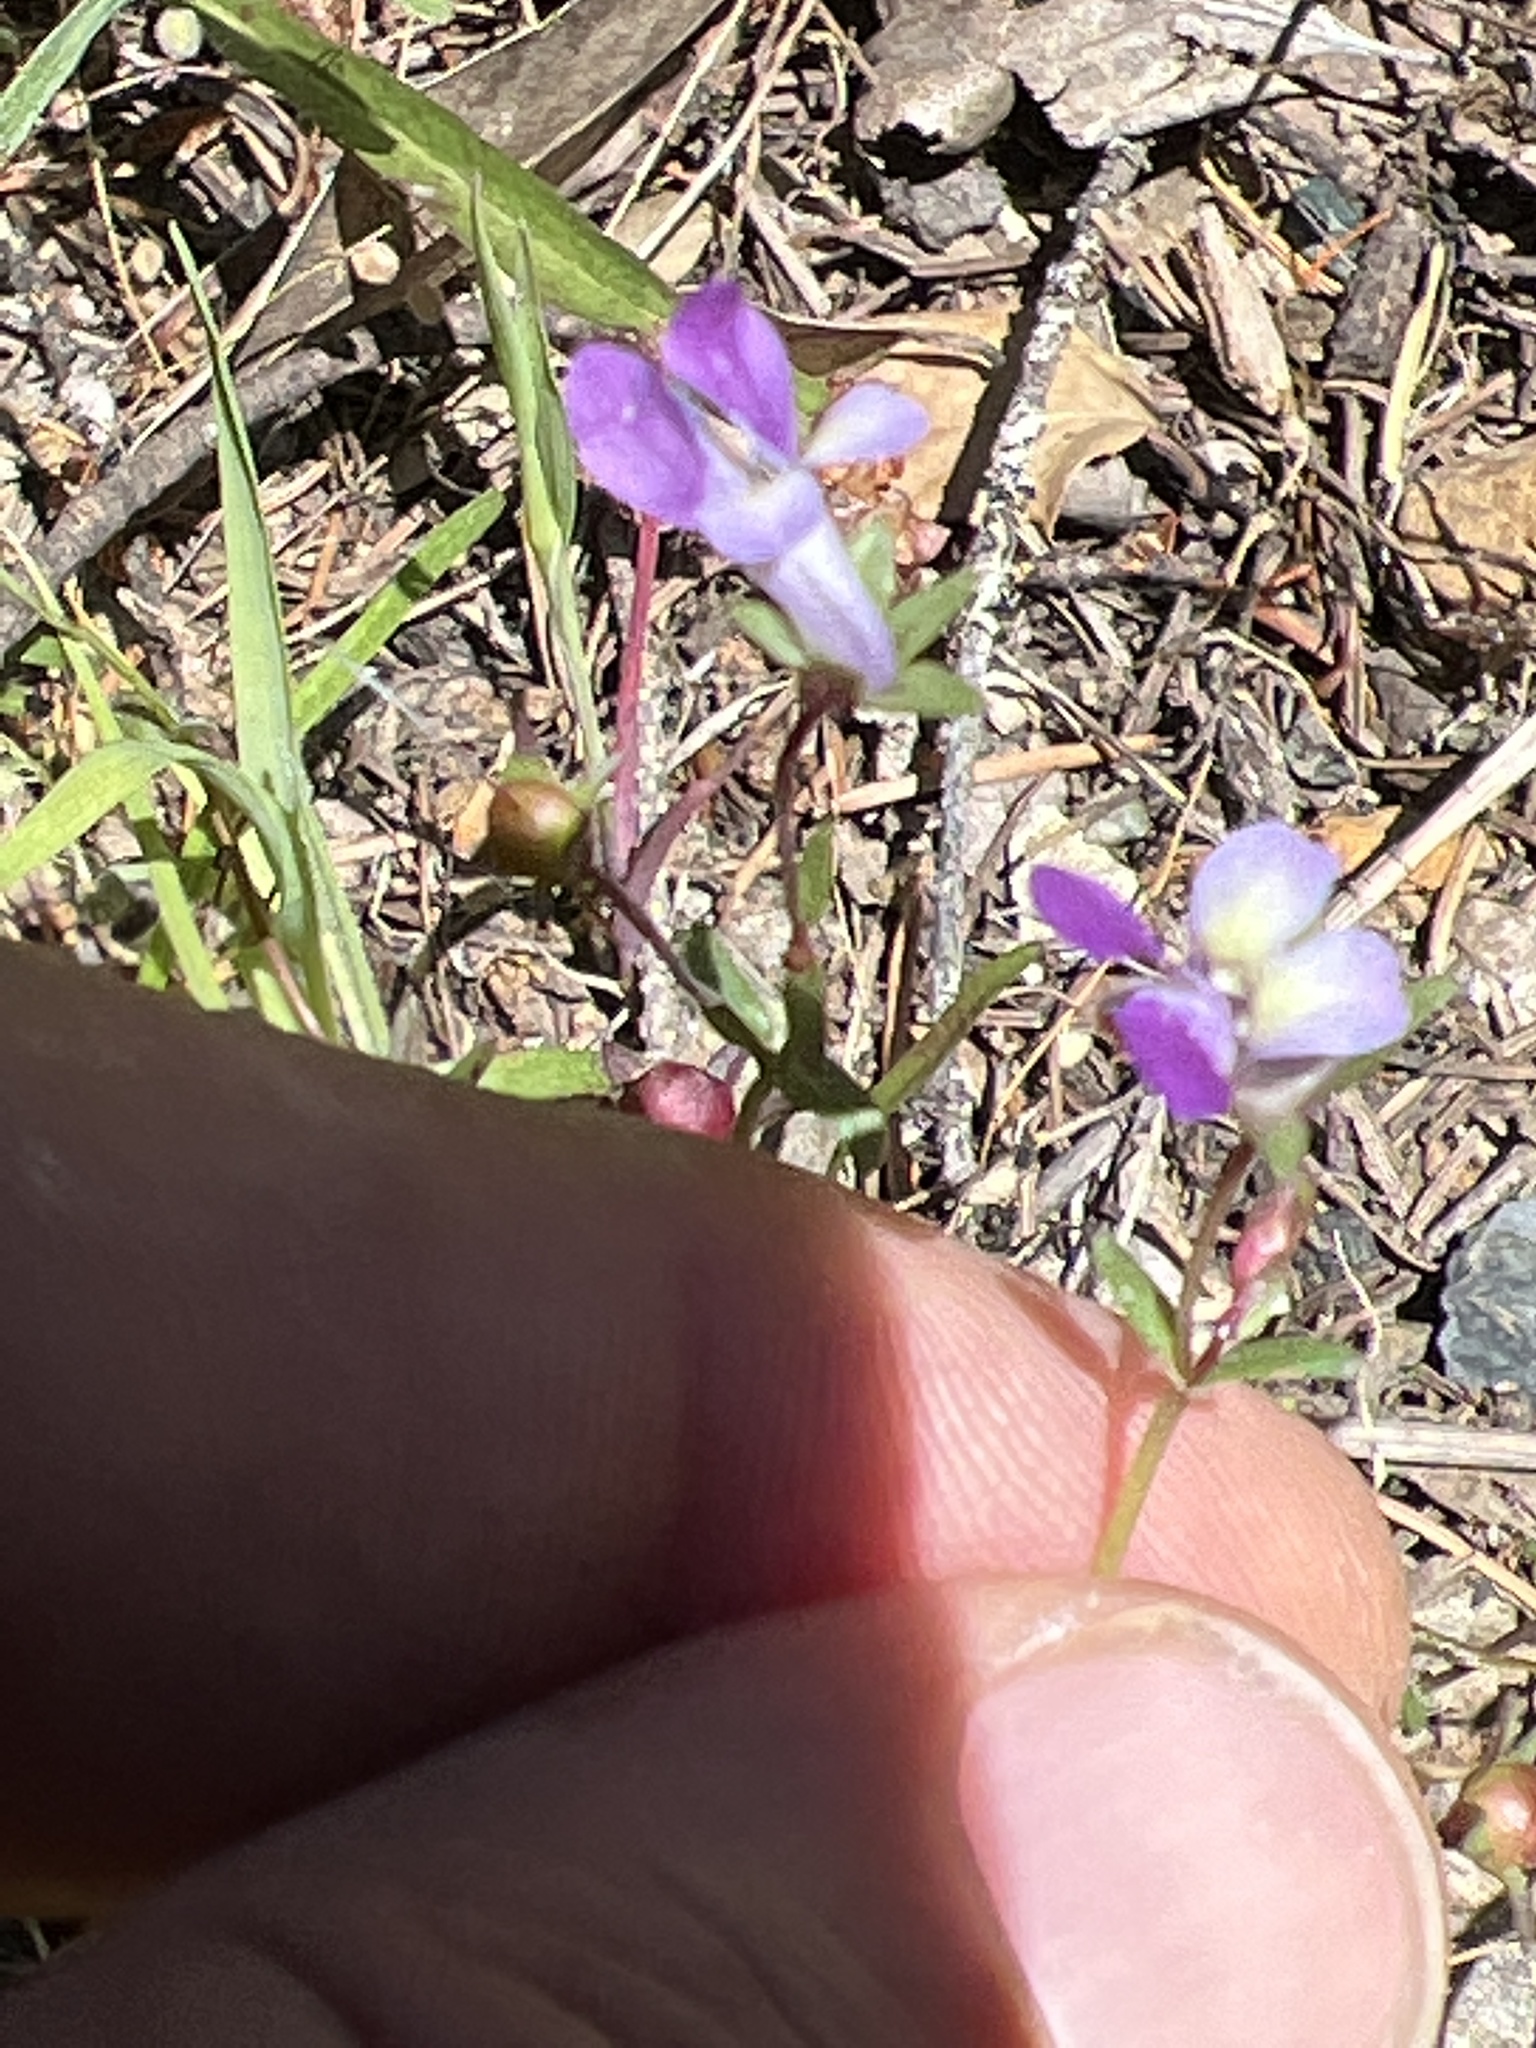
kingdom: Plantae
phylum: Tracheophyta
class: Magnoliopsida
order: Lamiales
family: Plantaginaceae
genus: Collinsia
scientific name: Collinsia sparsiflora
